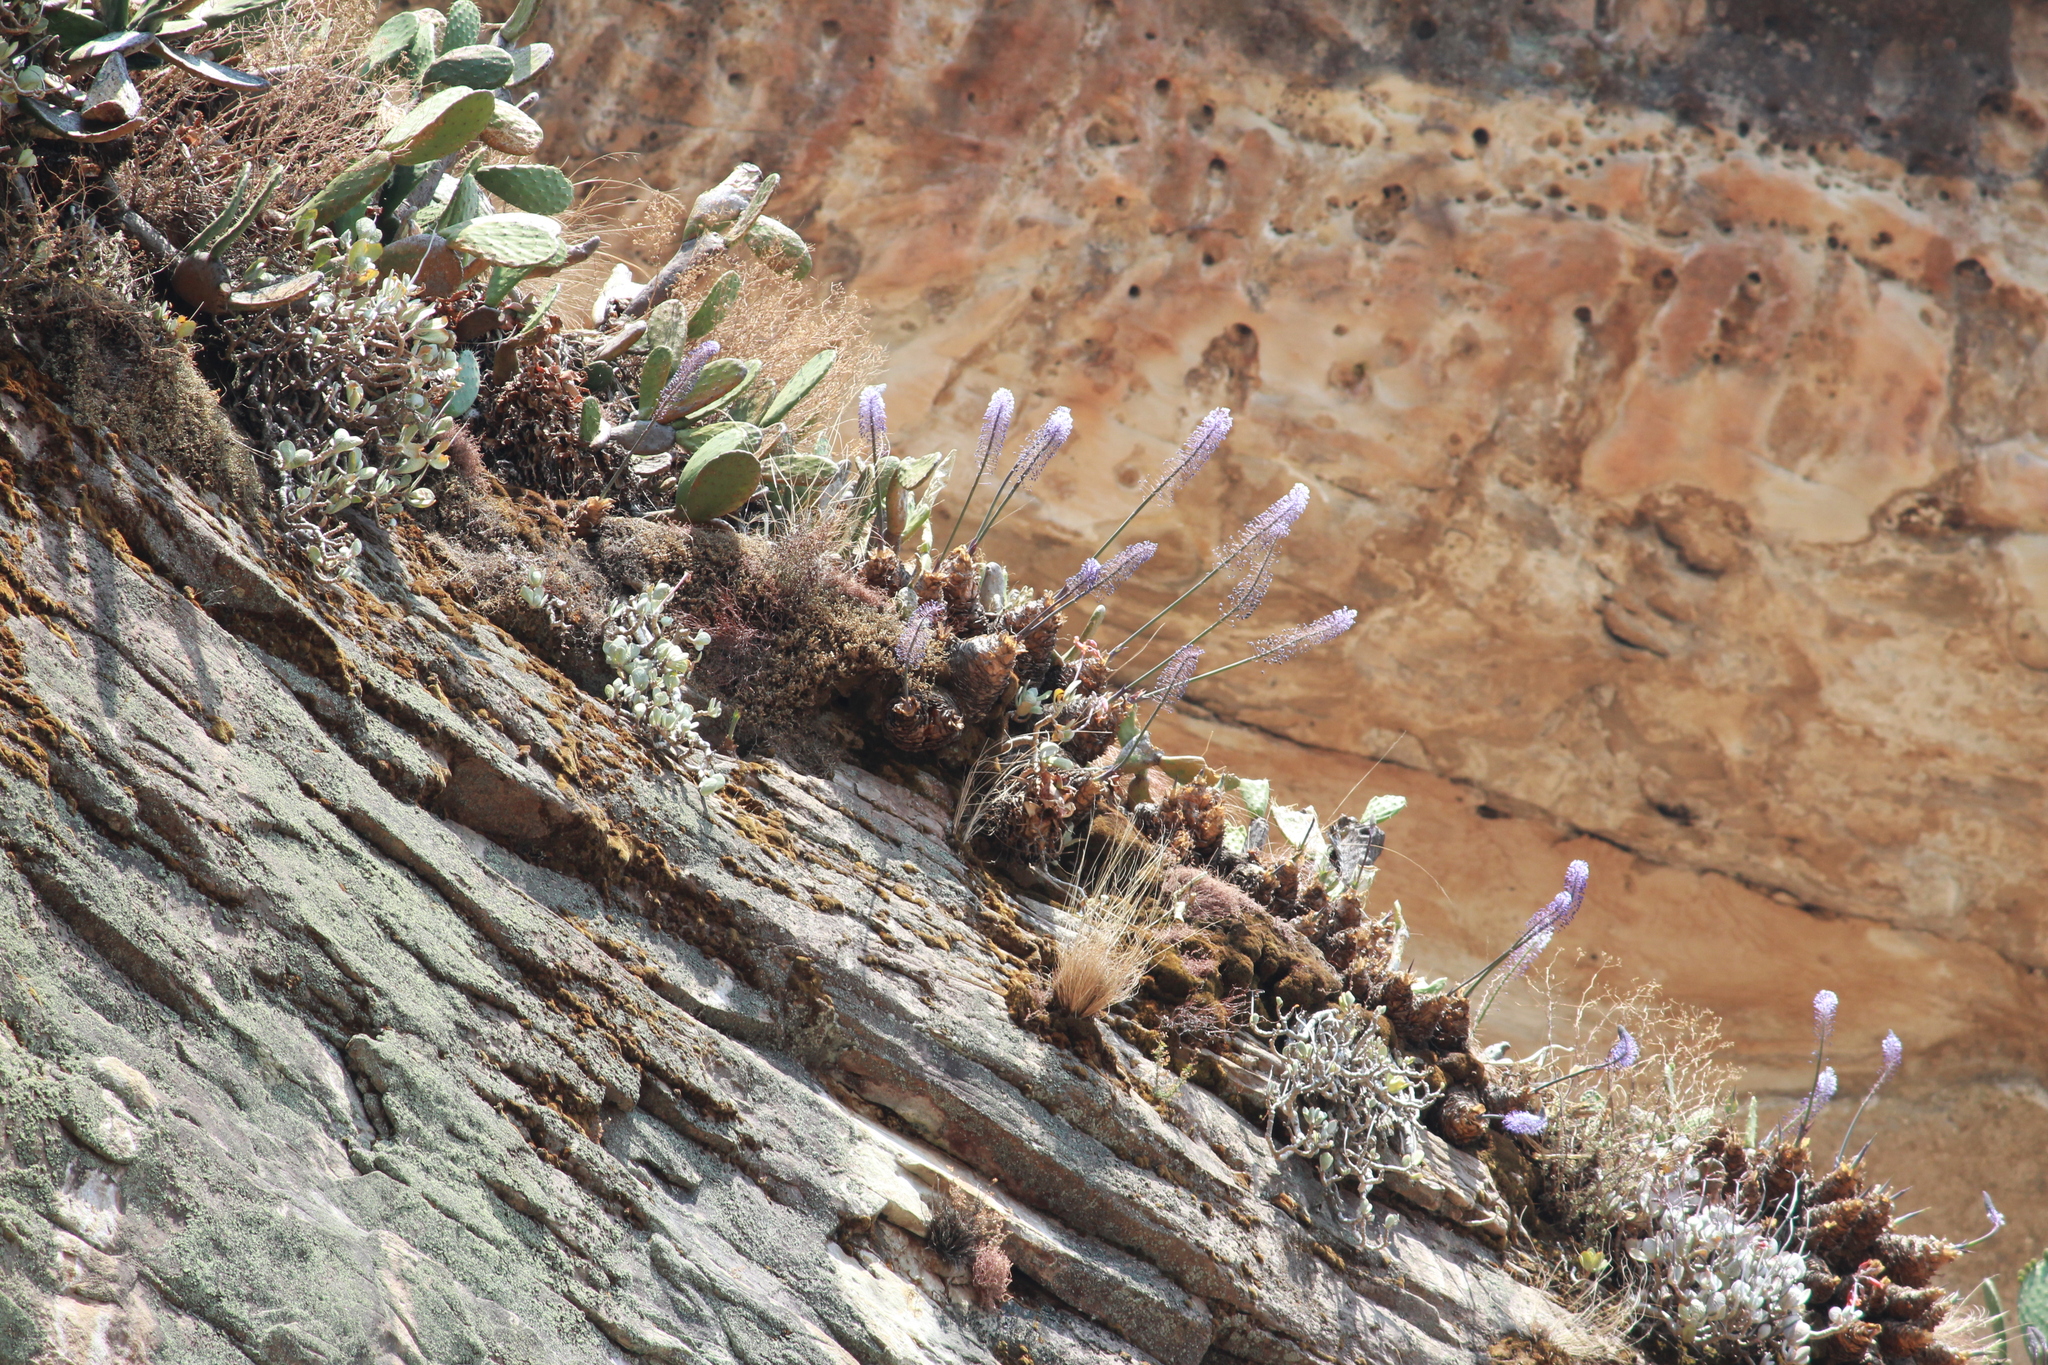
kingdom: Plantae
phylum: Tracheophyta
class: Liliopsida
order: Asparagales
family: Asparagaceae
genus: Merwilla
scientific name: Merwilla plumbea
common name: Blue-squill
